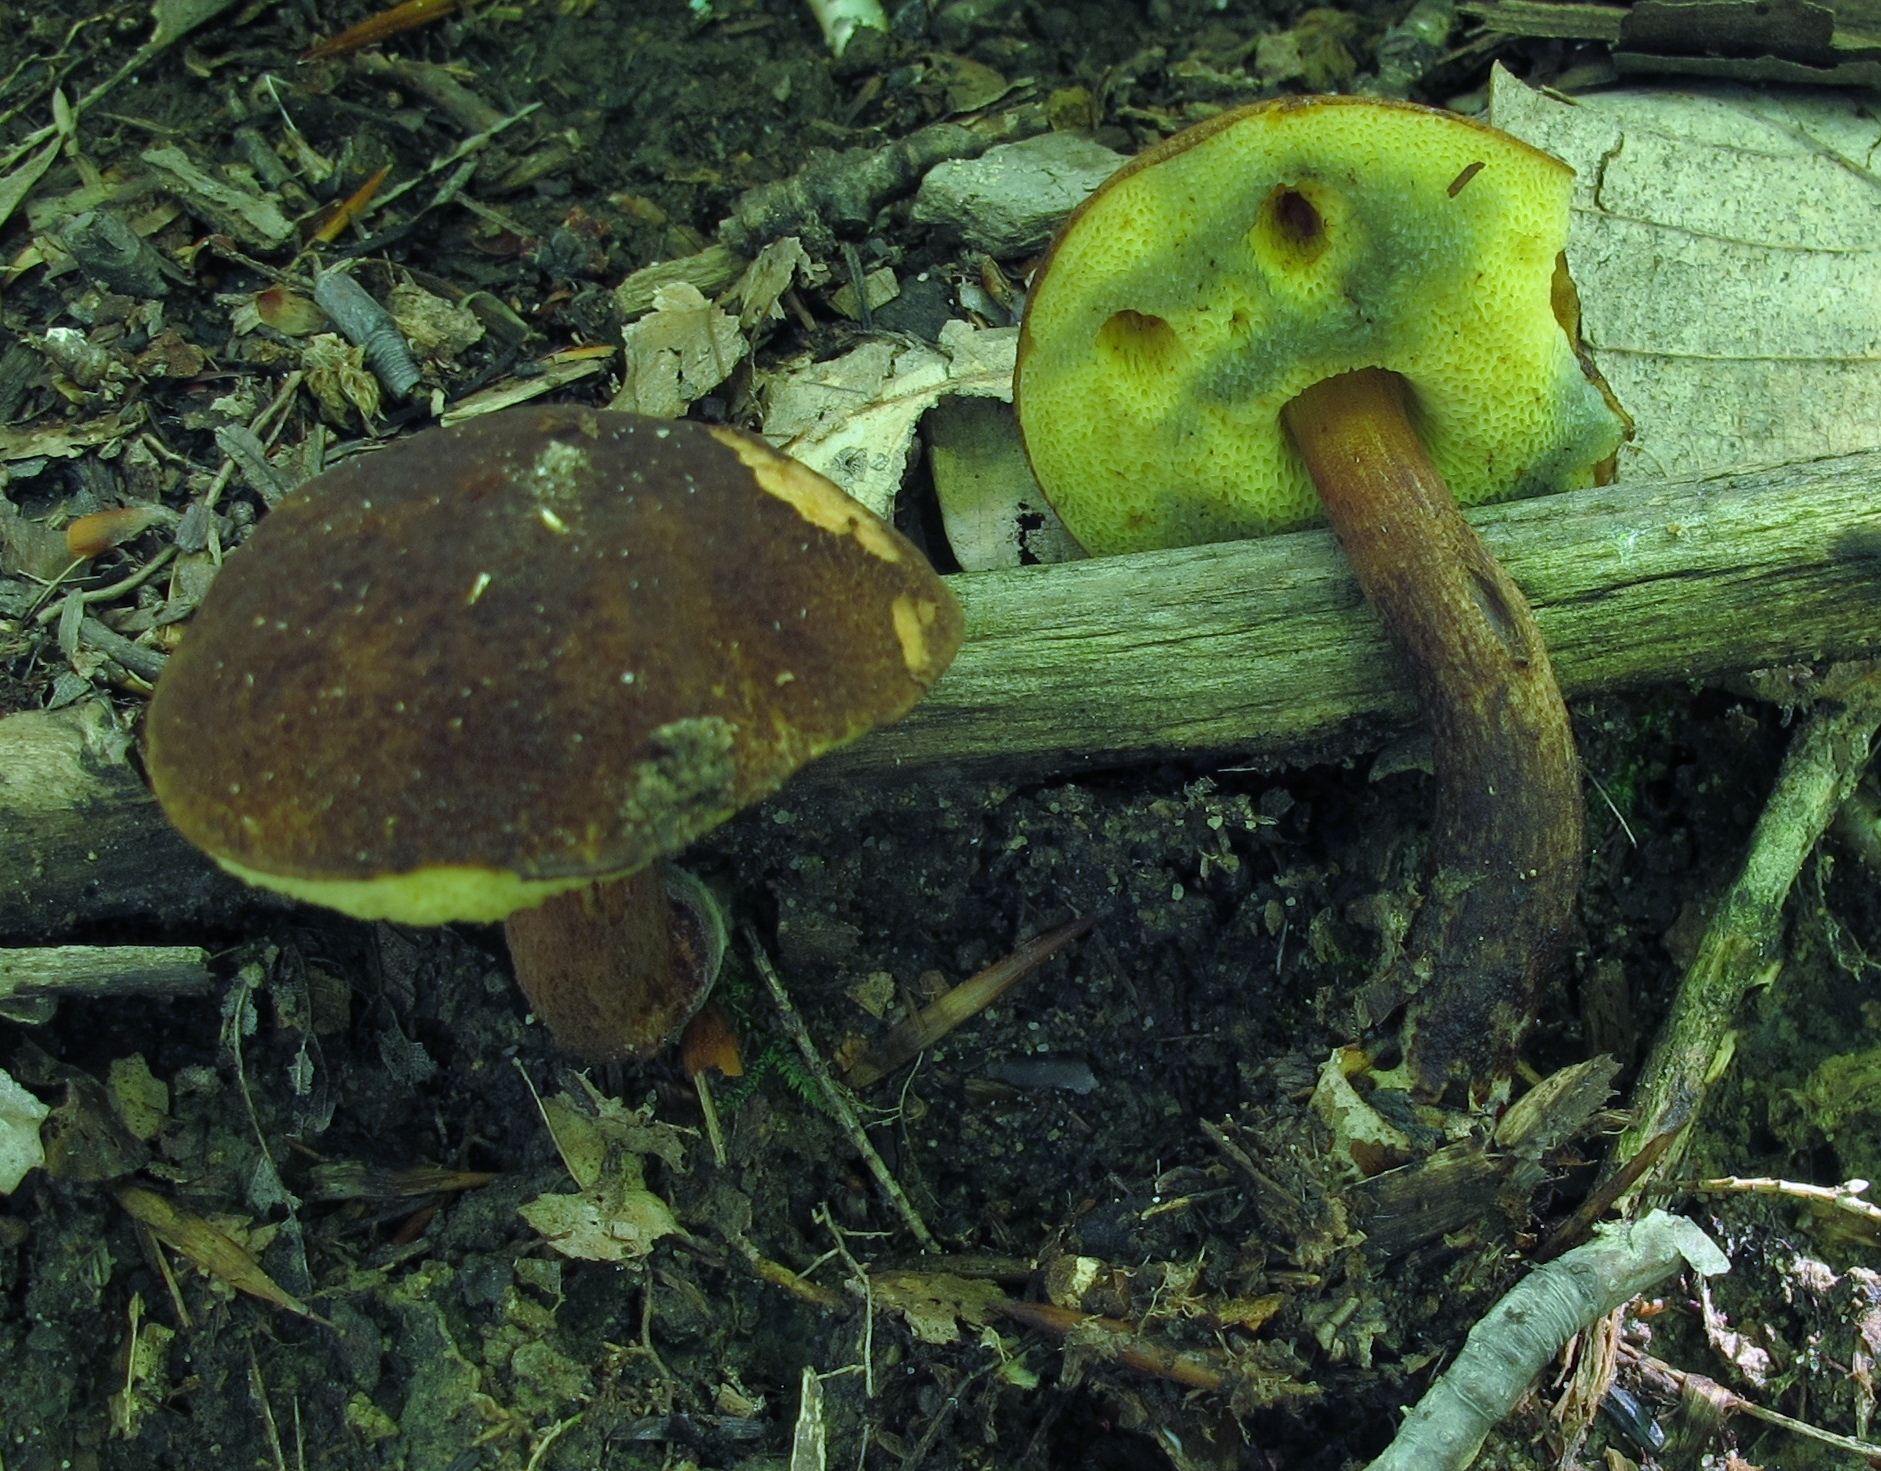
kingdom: Fungi
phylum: Basidiomycota
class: Agaricomycetes
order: Boletales
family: Boletaceae
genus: Boletellus
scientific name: Boletellus chrysenteroides
